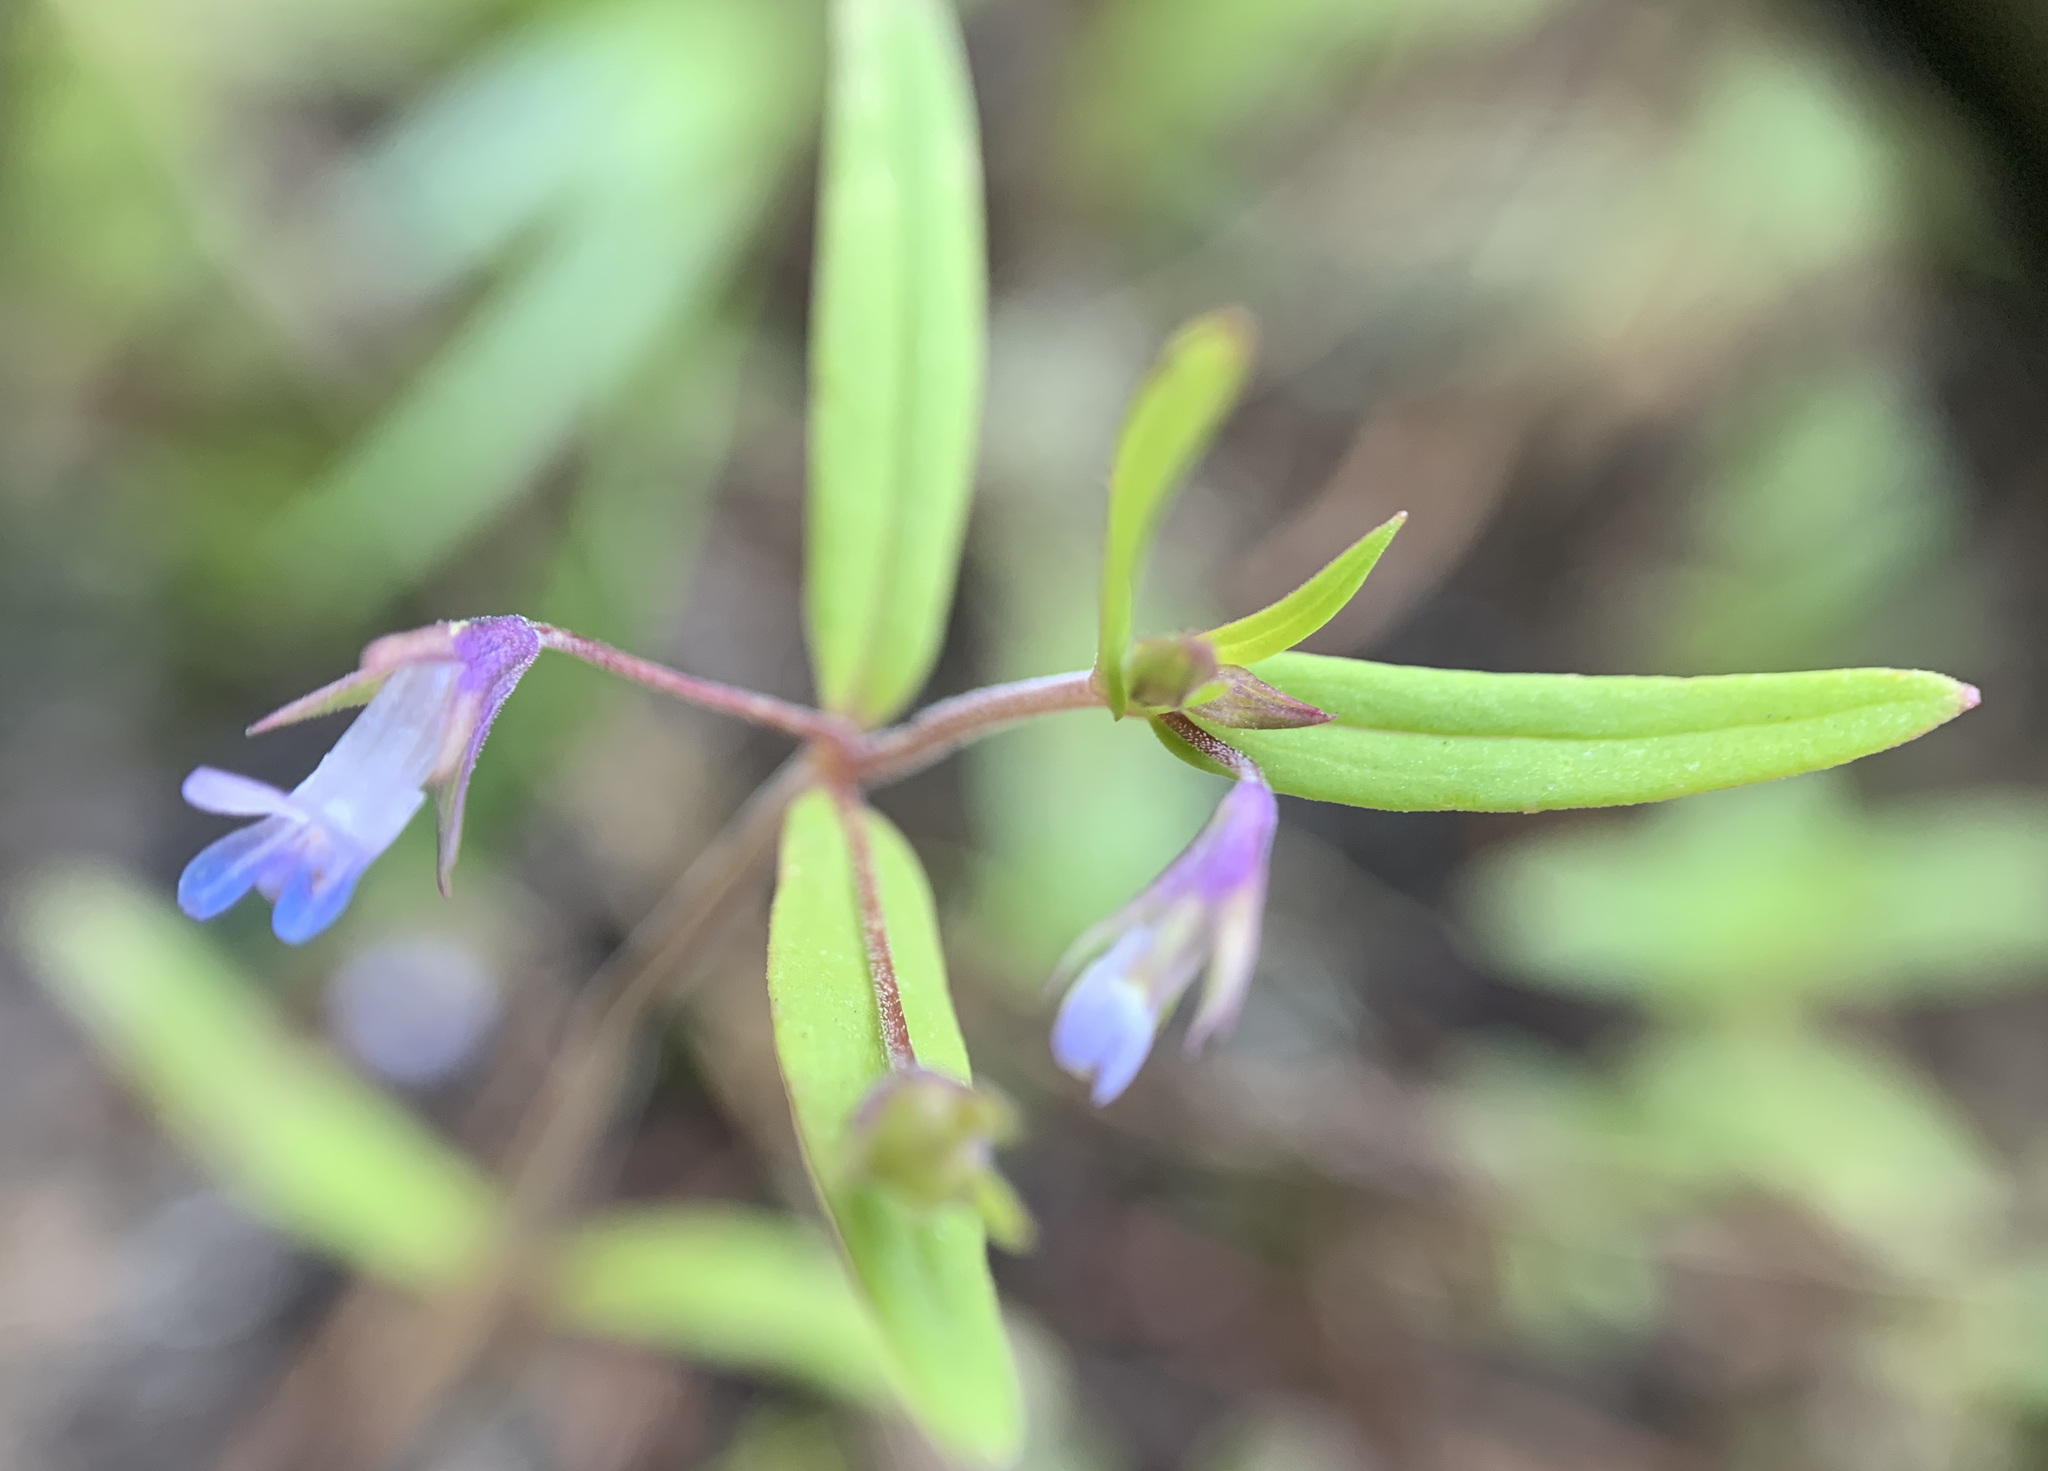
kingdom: Plantae
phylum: Tracheophyta
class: Magnoliopsida
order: Lamiales
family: Plantaginaceae
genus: Collinsia
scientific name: Collinsia parviflora
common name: Blue-lips
